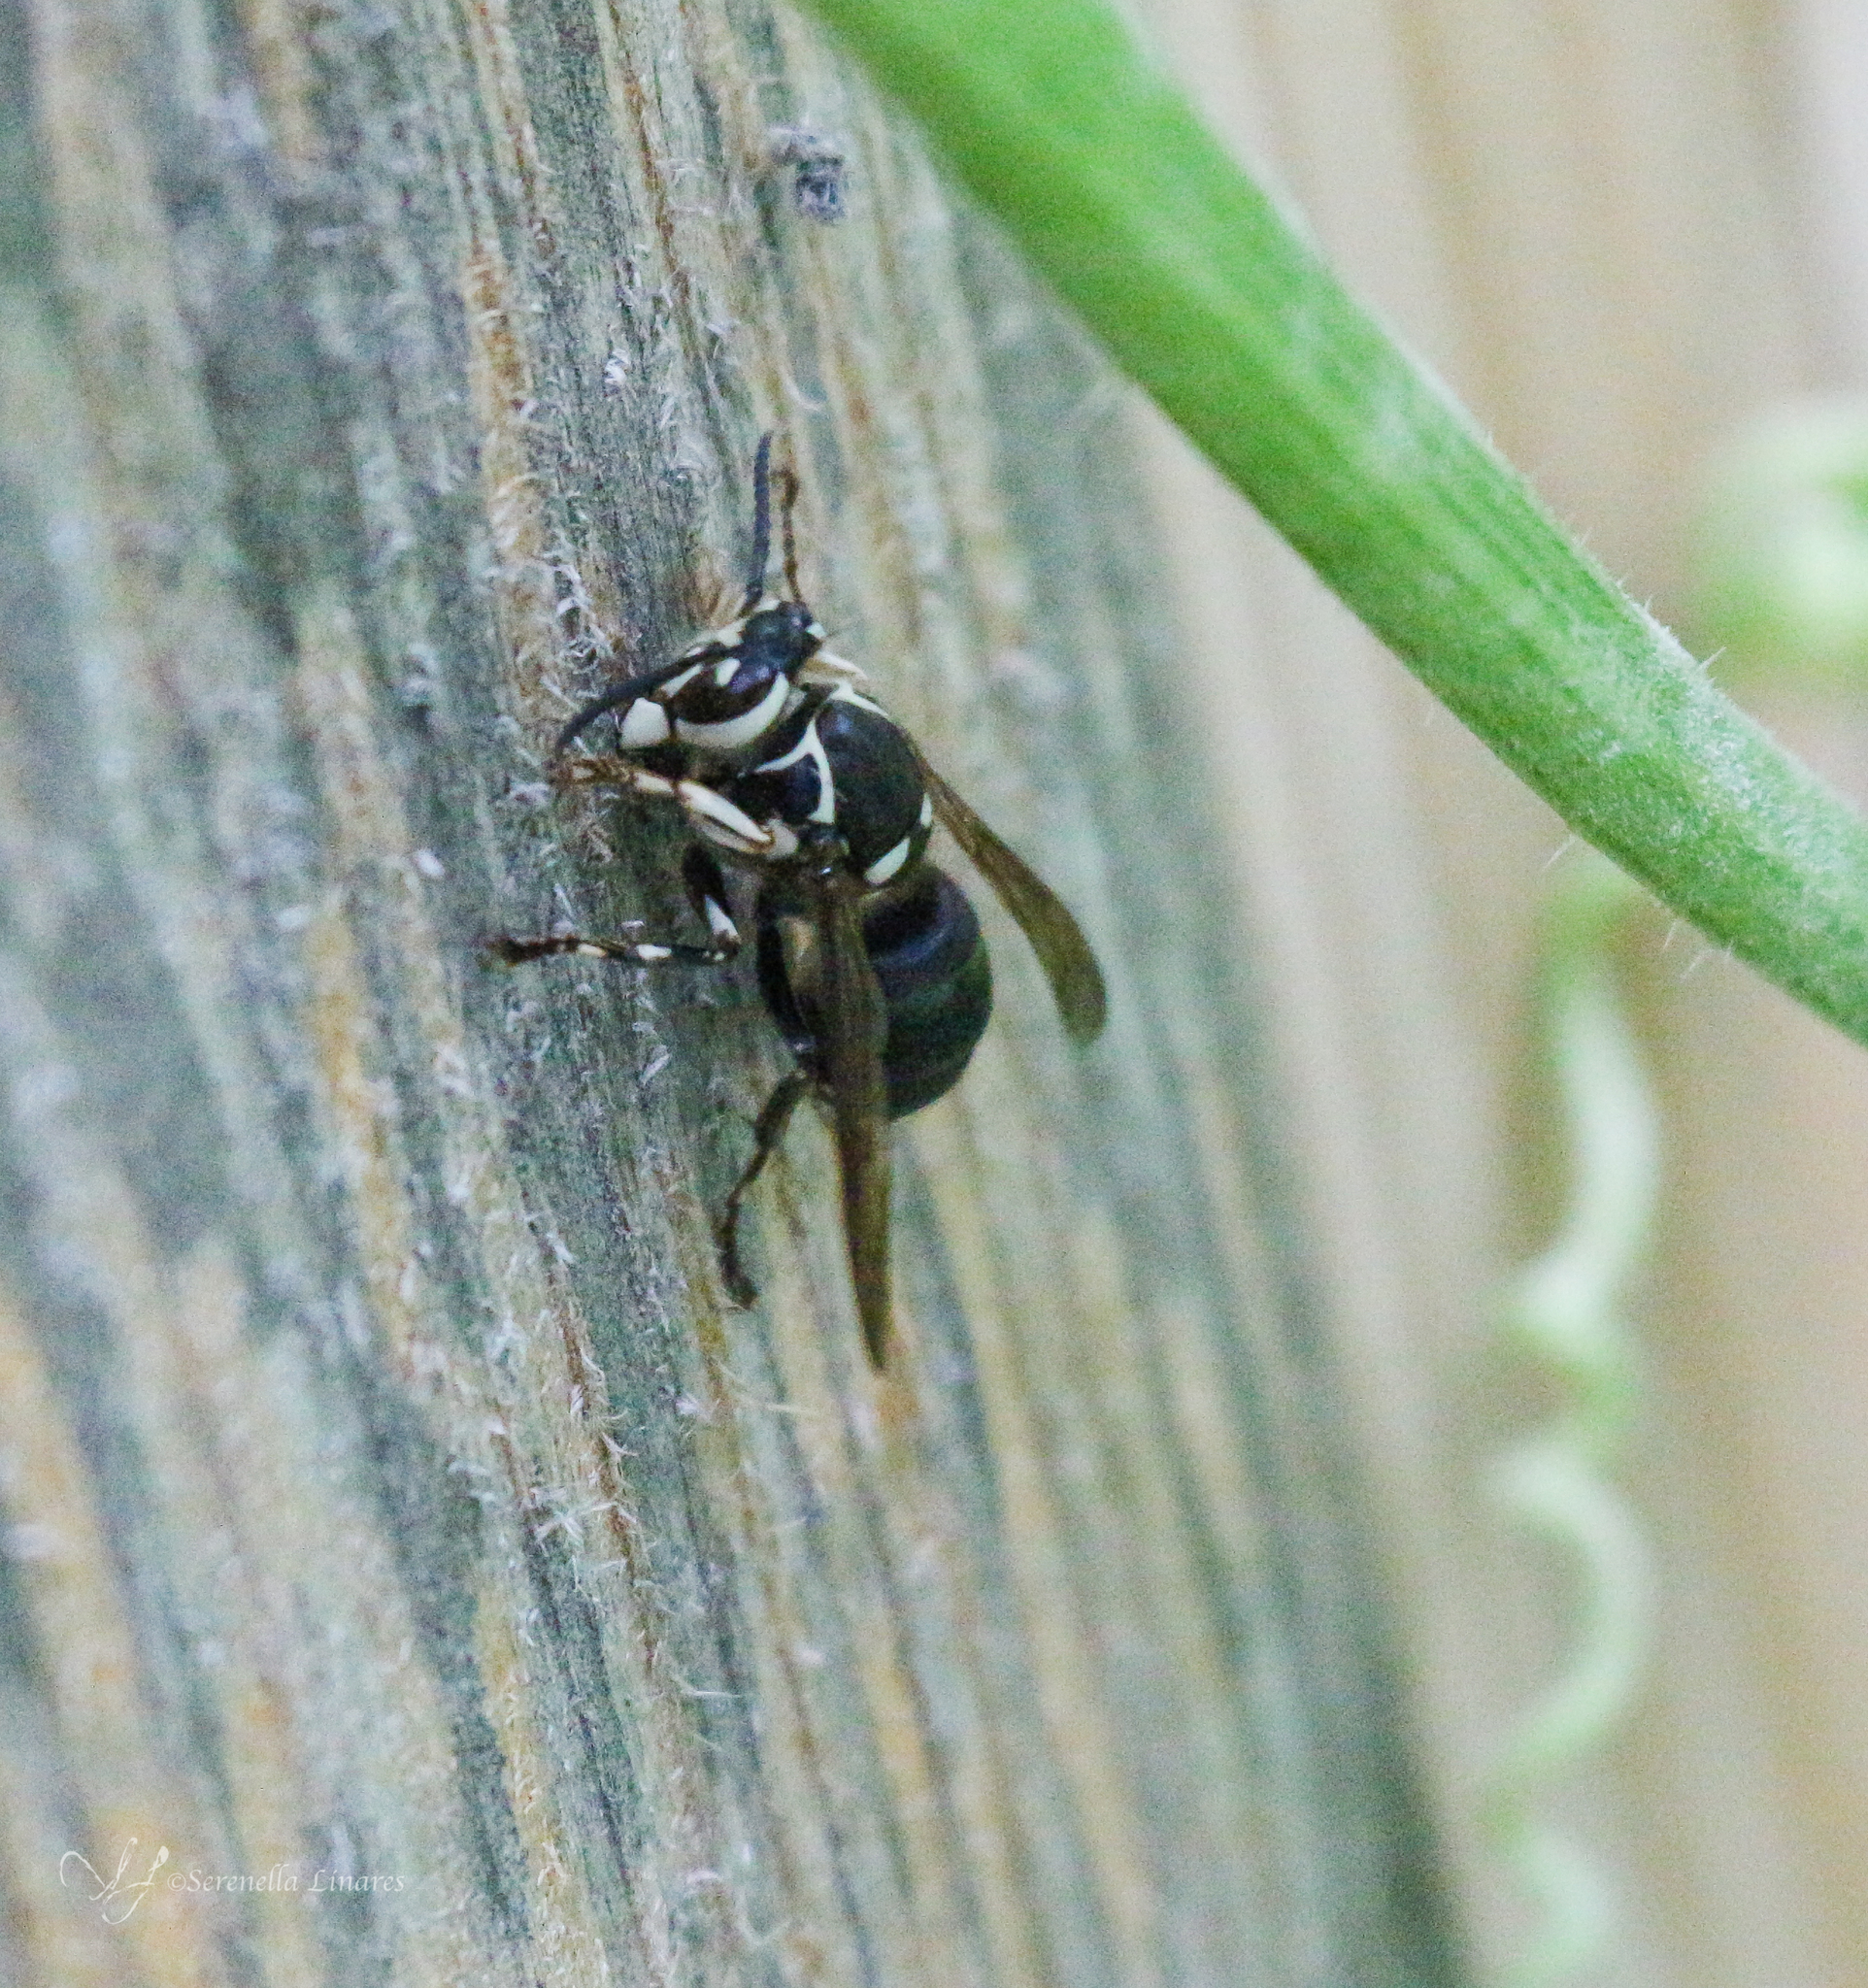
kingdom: Animalia
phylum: Arthropoda
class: Insecta
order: Hymenoptera
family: Vespidae
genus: Dolichovespula
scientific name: Dolichovespula maculata
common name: Bald-faced hornet
